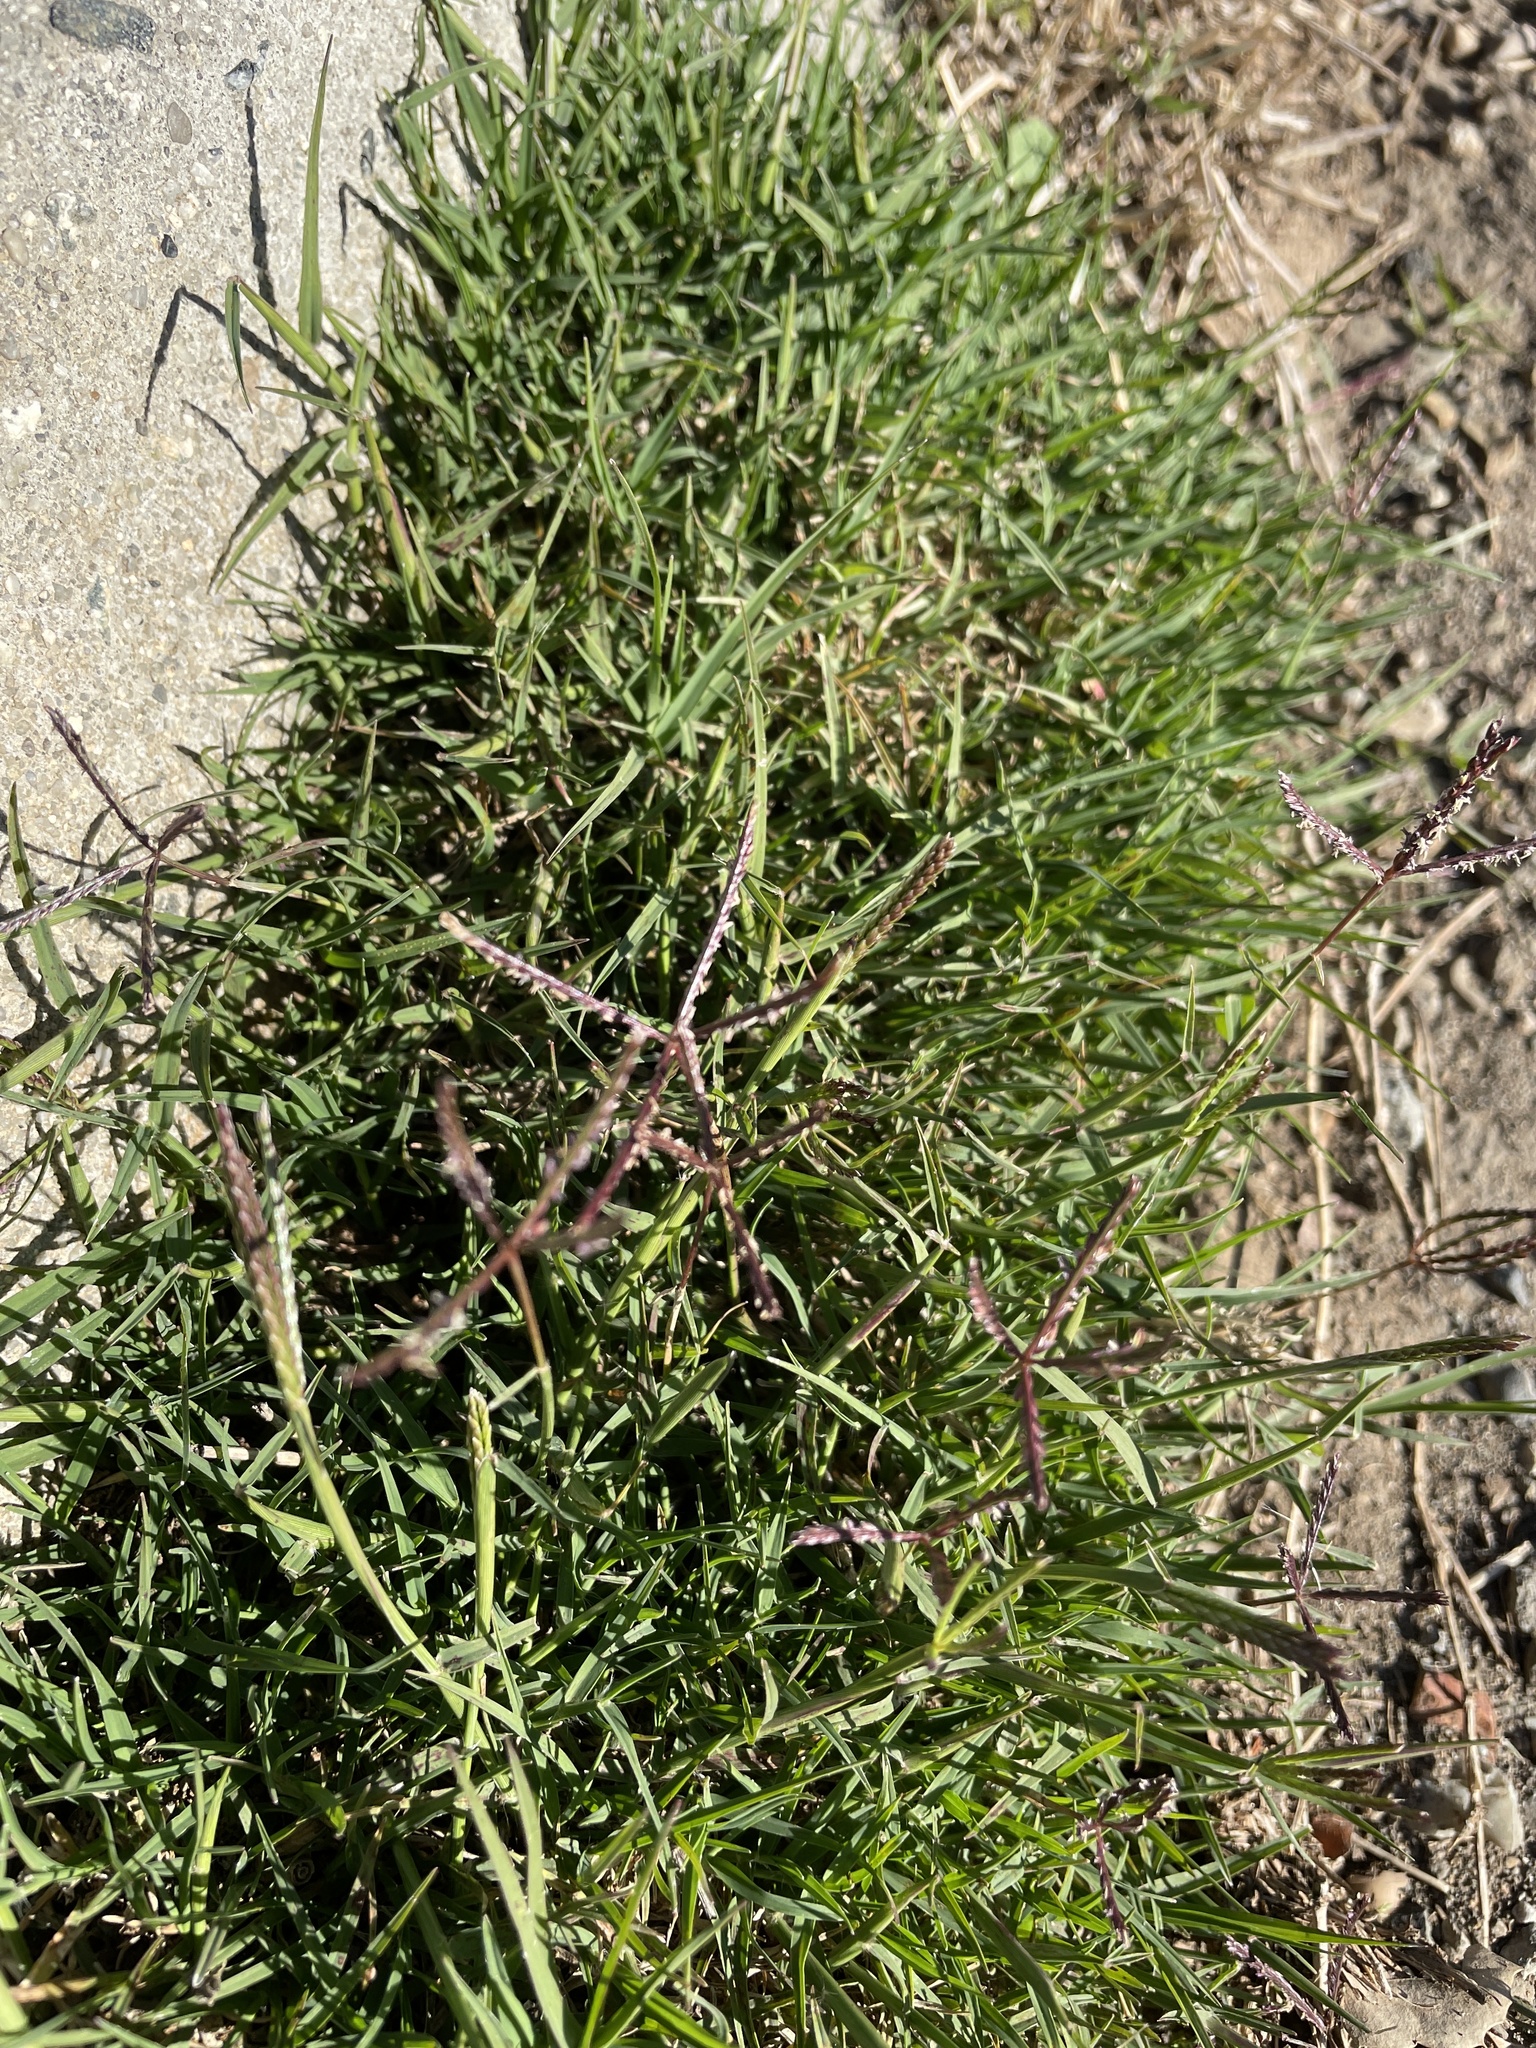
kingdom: Plantae
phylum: Tracheophyta
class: Liliopsida
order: Poales
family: Poaceae
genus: Cynodon
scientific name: Cynodon dactylon
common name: Bermuda grass
